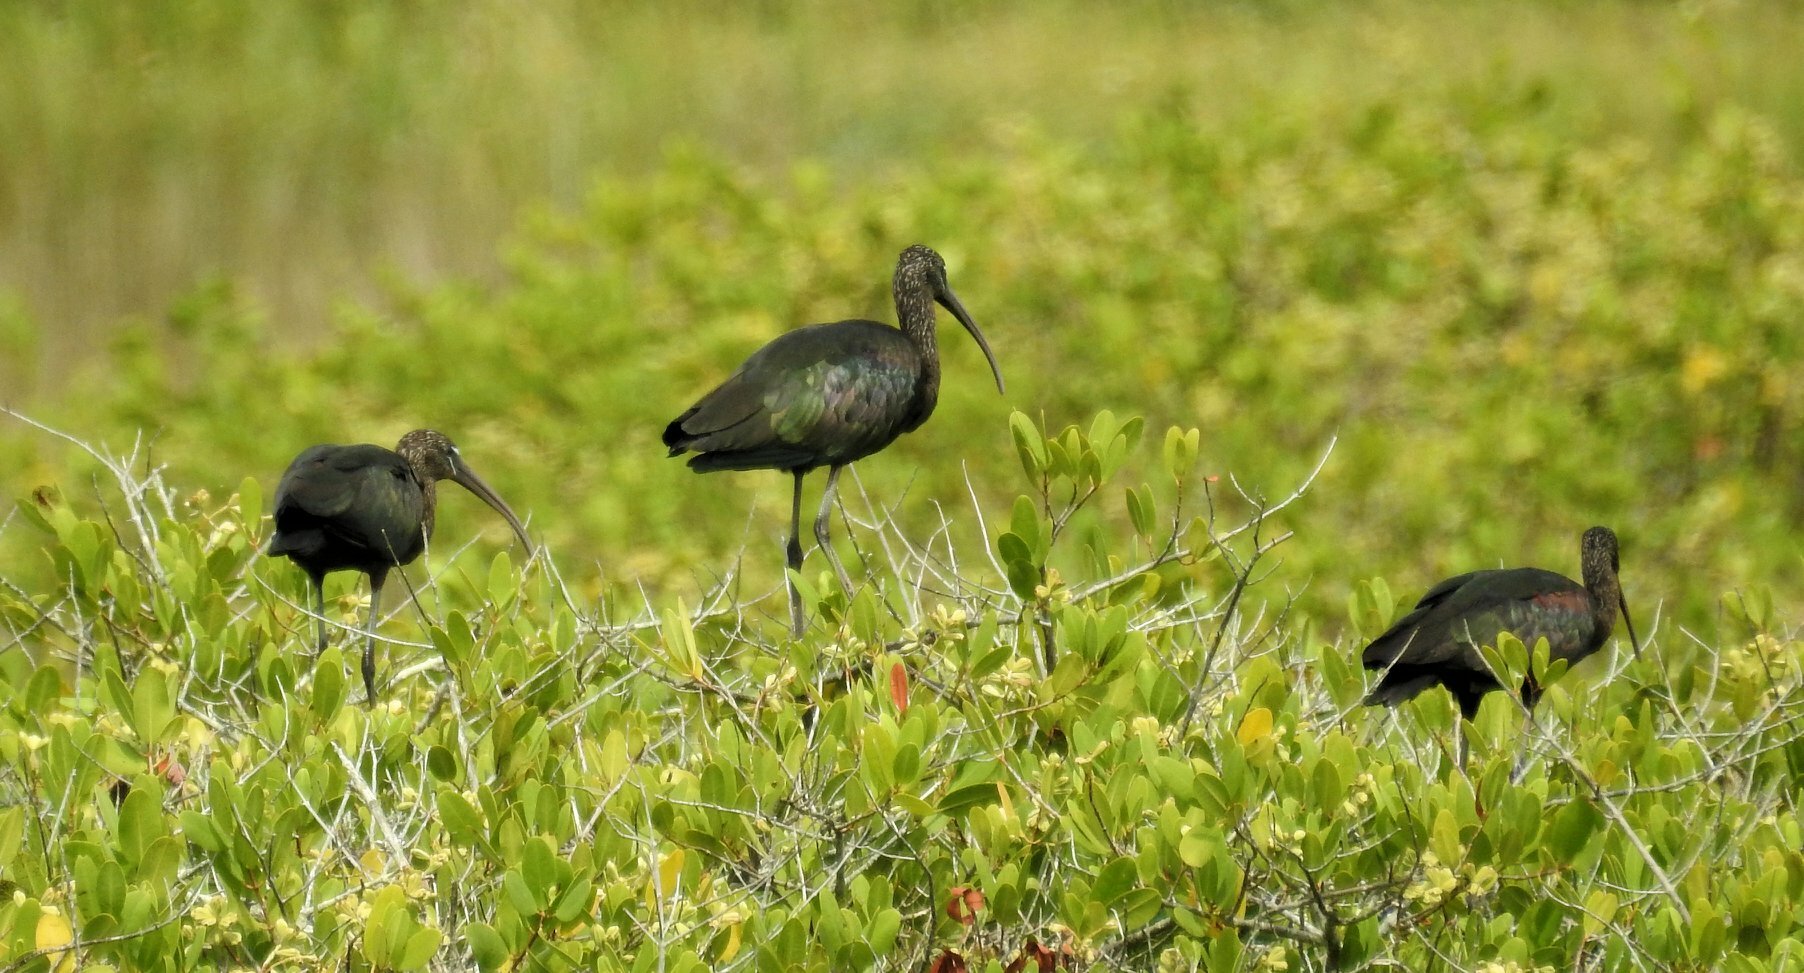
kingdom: Animalia
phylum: Chordata
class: Aves
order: Pelecaniformes
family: Threskiornithidae
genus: Plegadis
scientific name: Plegadis falcinellus
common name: Glossy ibis
